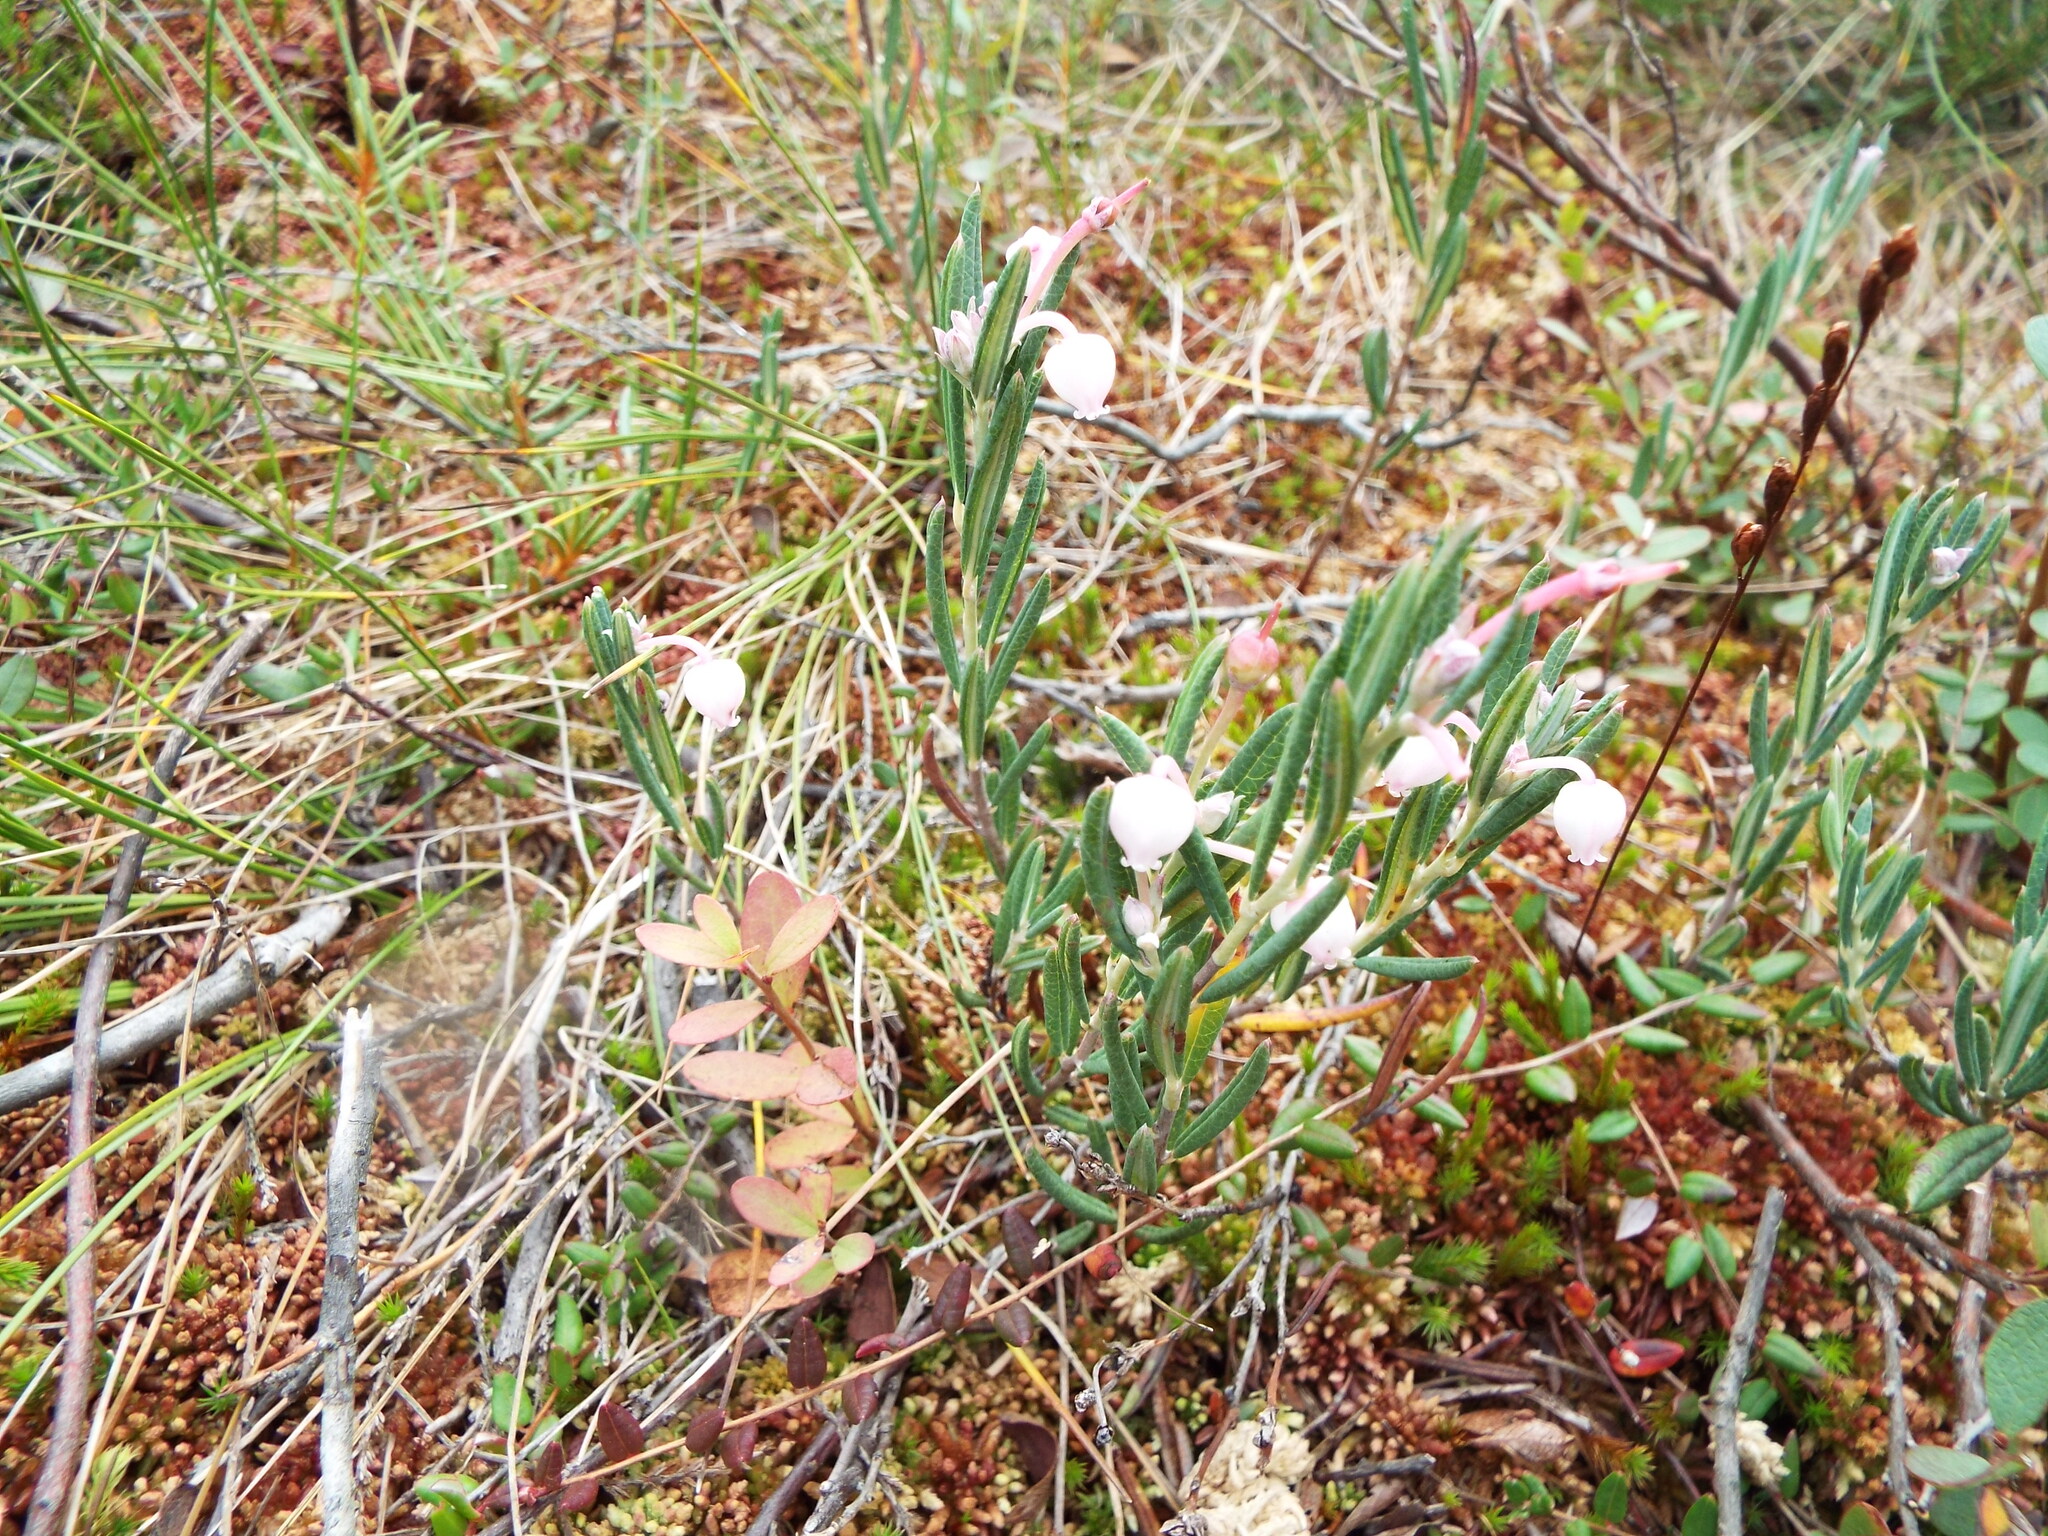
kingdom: Plantae
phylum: Tracheophyta
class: Magnoliopsida
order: Ericales
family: Ericaceae
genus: Andromeda
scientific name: Andromeda polifolia
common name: Bog-rosemary
